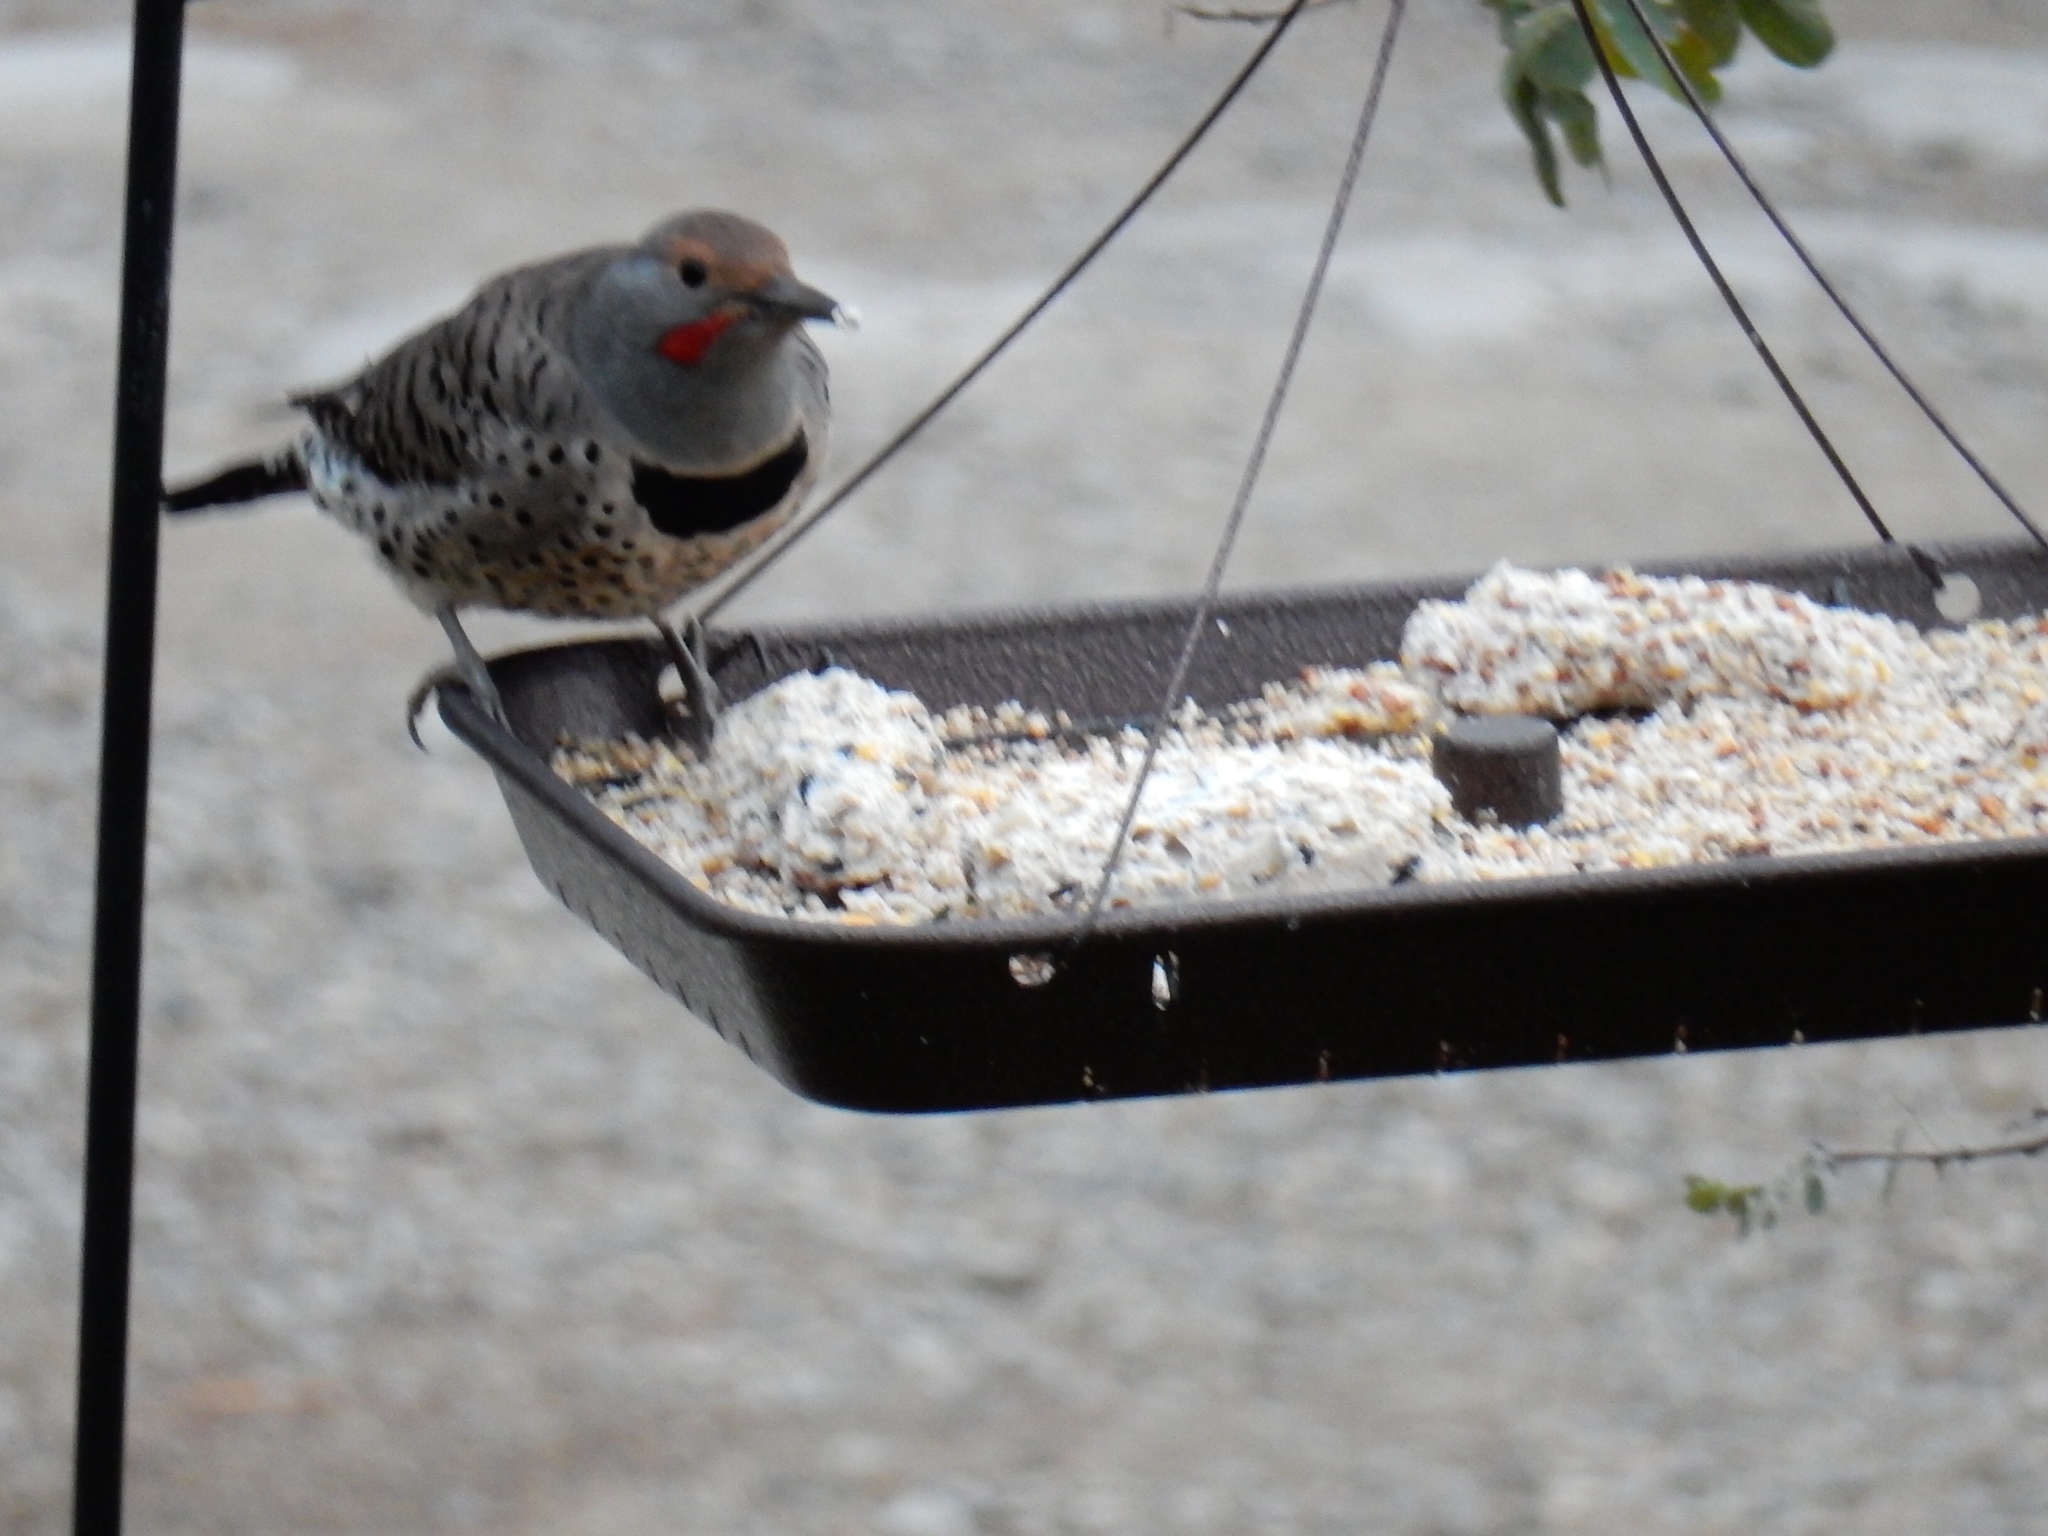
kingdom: Animalia
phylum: Chordata
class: Aves
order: Piciformes
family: Picidae
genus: Colaptes
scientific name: Colaptes auratus
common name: Northern flicker
